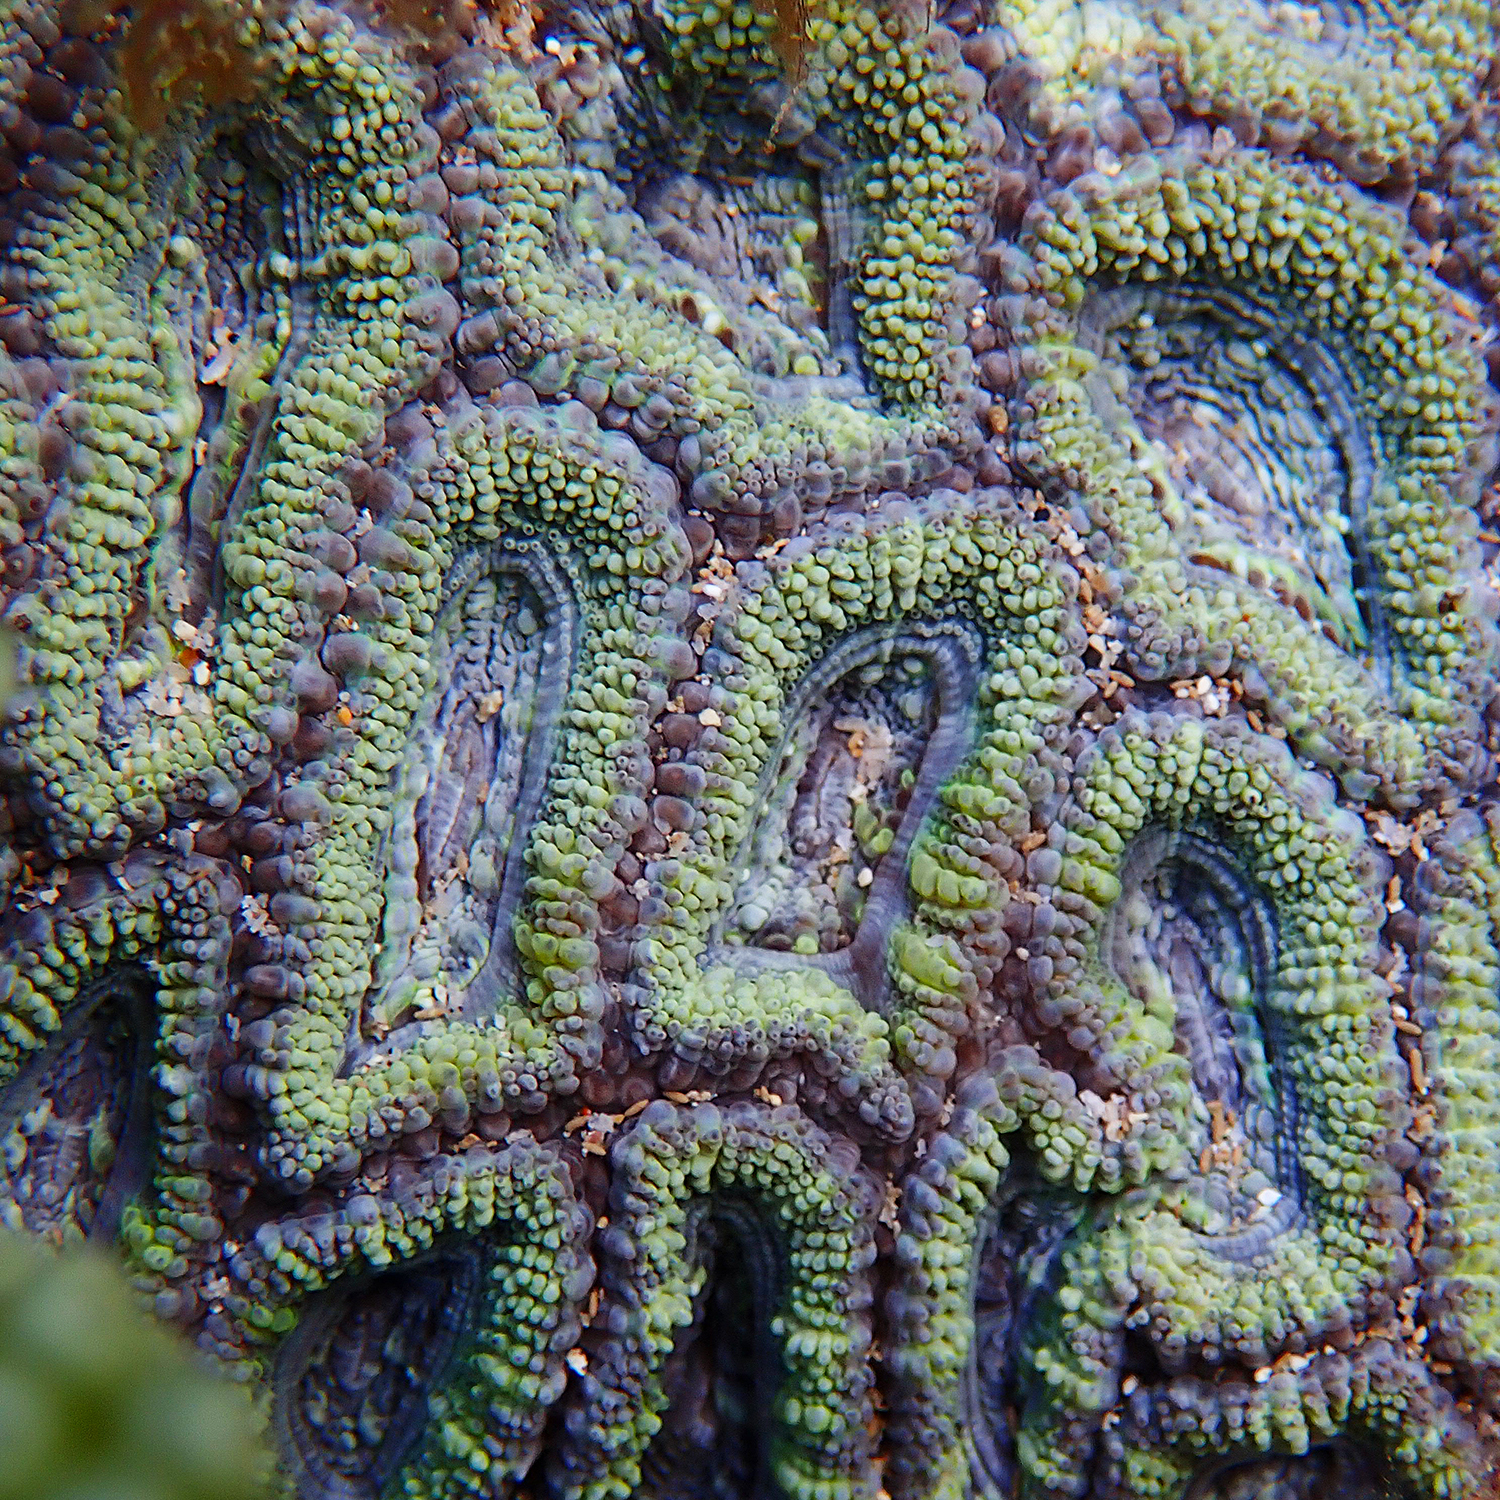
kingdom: Animalia
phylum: Cnidaria
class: Anthozoa
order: Scleractinia
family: Lobophylliidae
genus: Micromussa
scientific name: Micromussa lordhowensis
